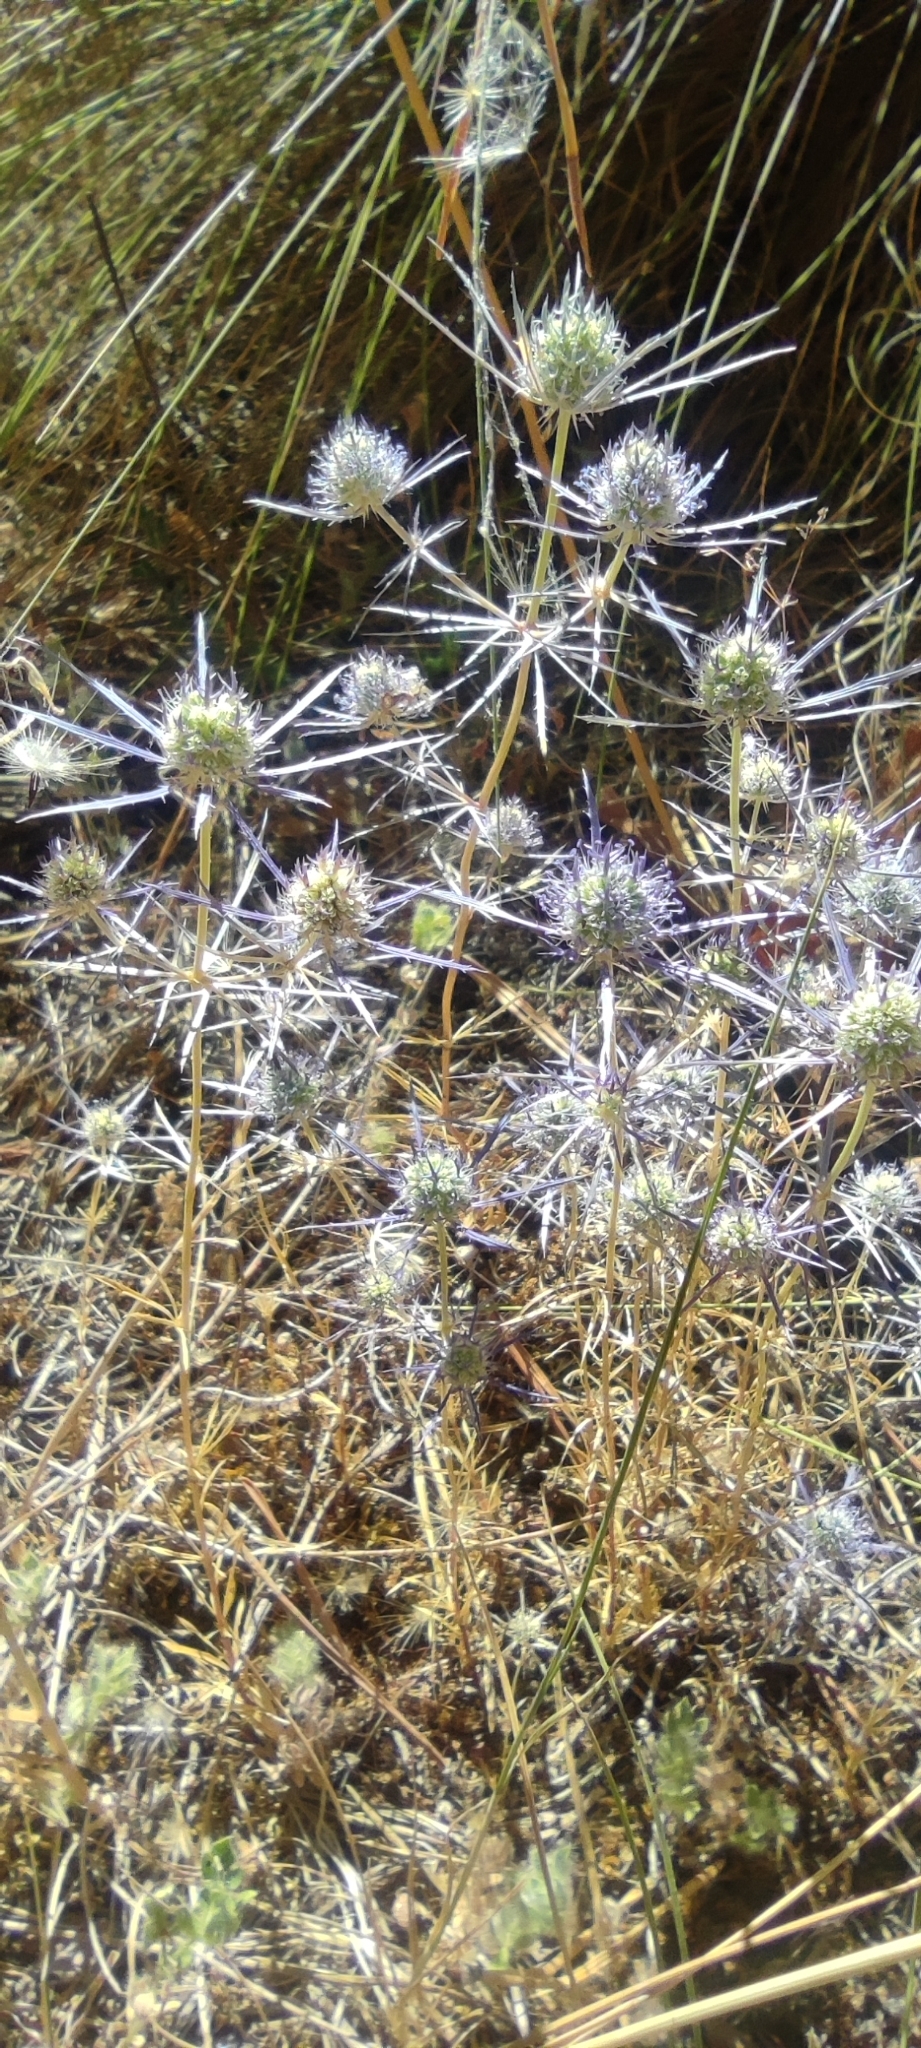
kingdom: Plantae
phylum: Tracheophyta
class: Magnoliopsida
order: Apiales
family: Apiaceae
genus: Eryngium
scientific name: Eryngium tenue
